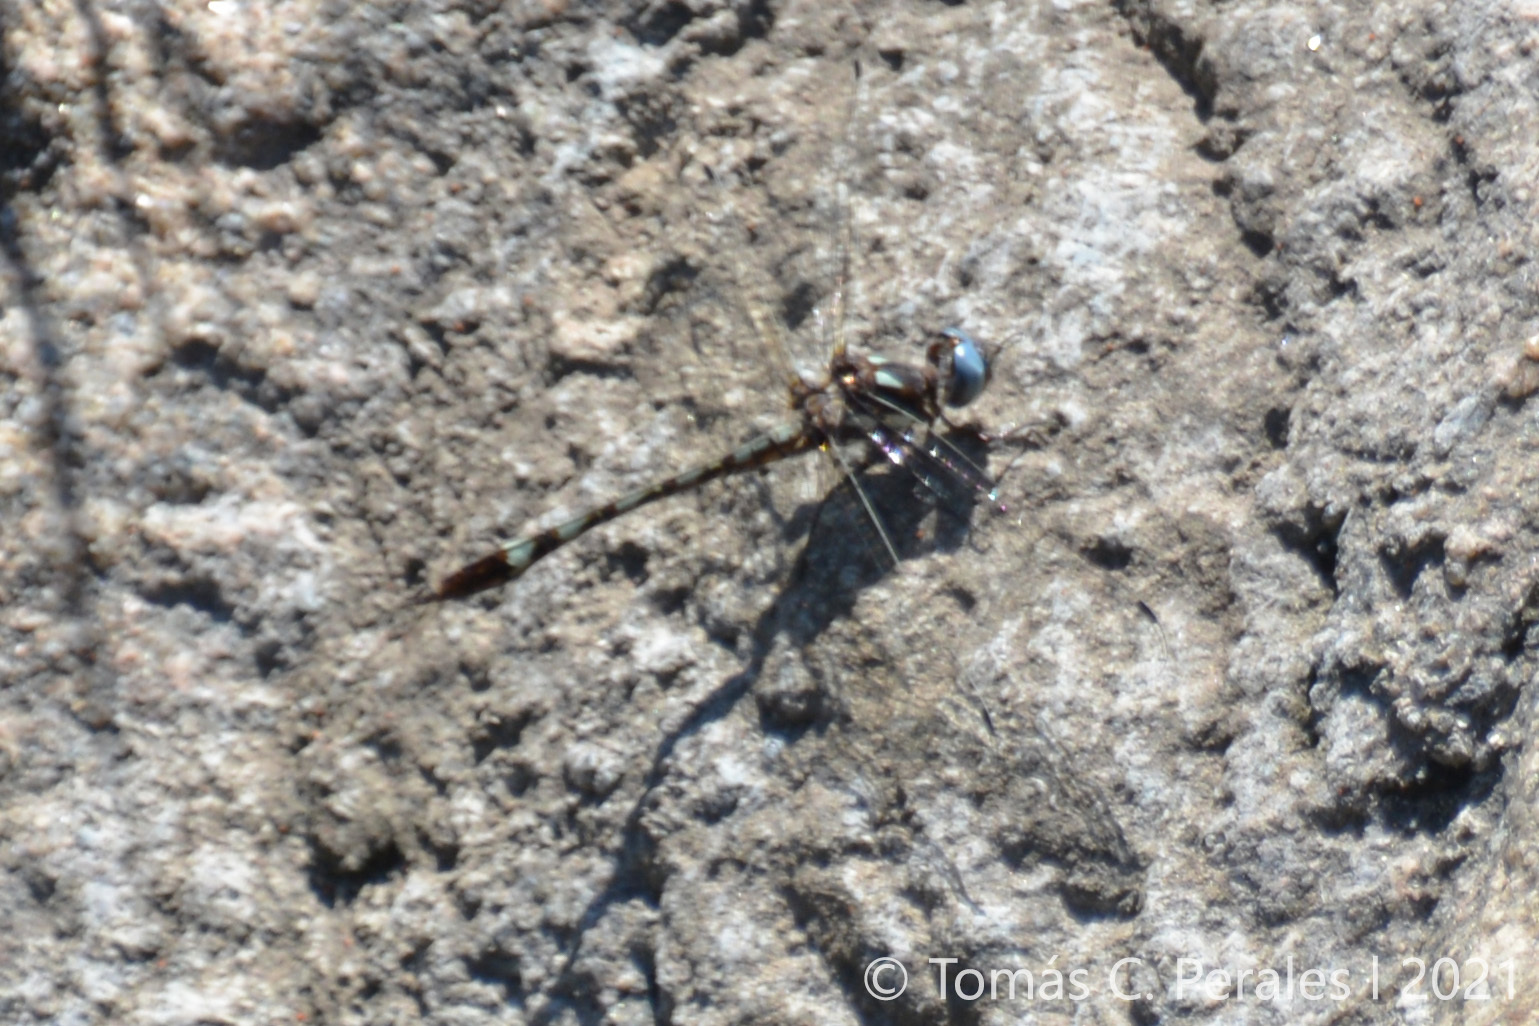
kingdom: Animalia
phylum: Arthropoda
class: Insecta
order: Odonata
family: Libellulidae
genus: Macrothemis
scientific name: Macrothemis imitans
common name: Ivory-striped sylph
